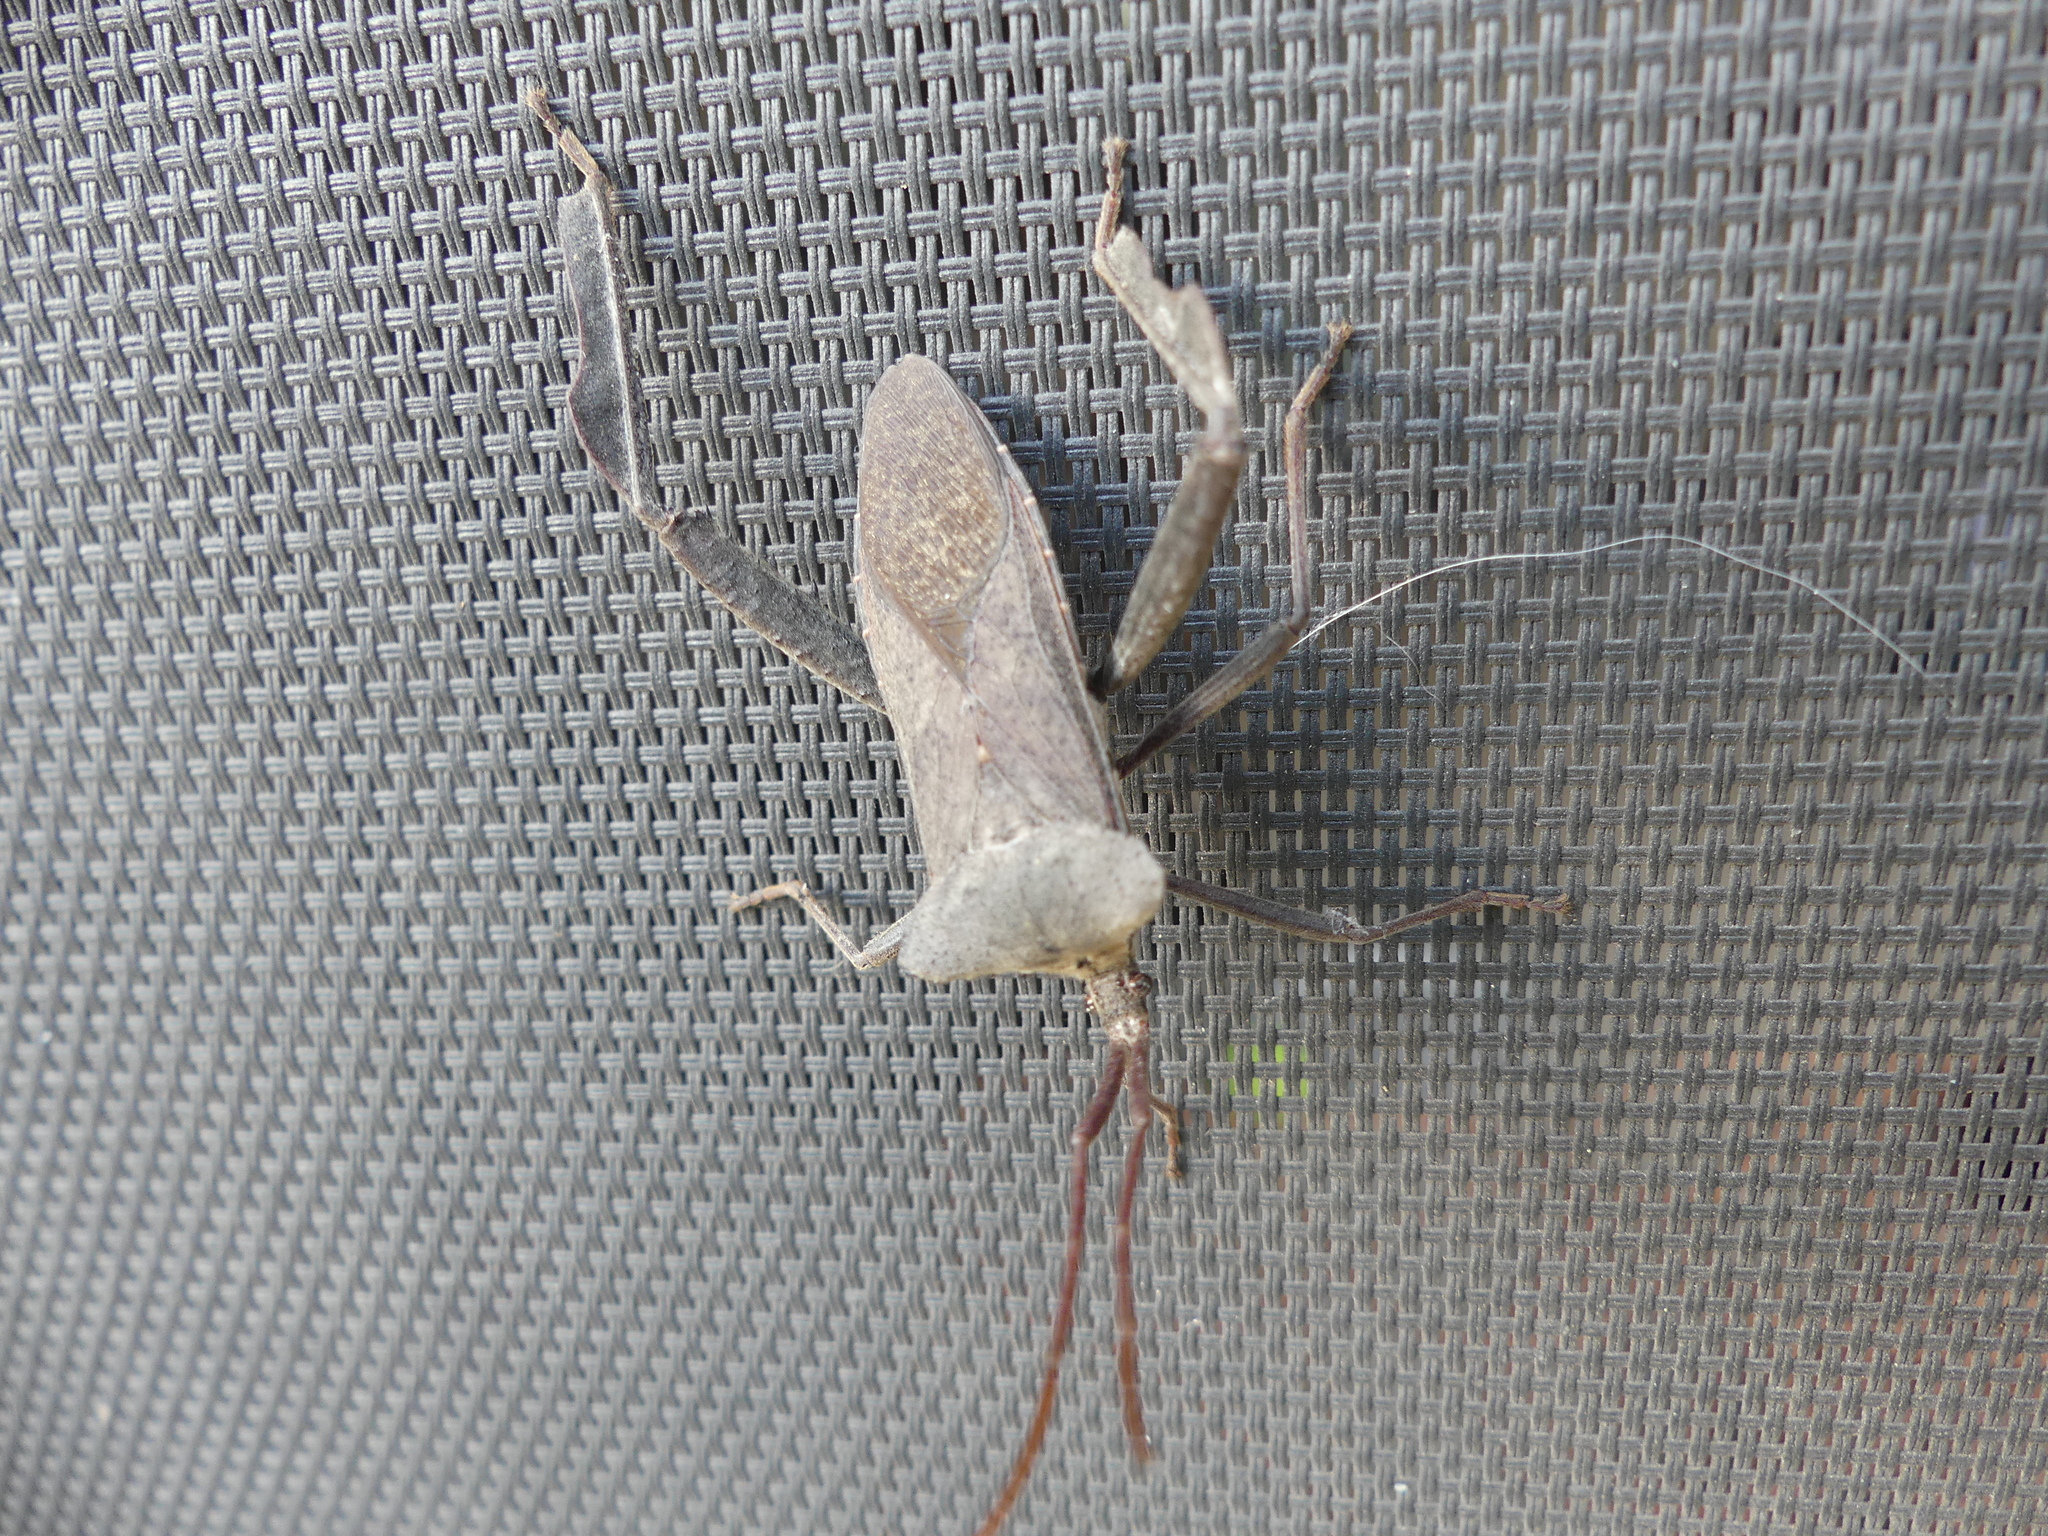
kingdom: Animalia
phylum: Arthropoda
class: Insecta
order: Hemiptera
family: Coreidae
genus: Acanthocephala
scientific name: Acanthocephala declivis
